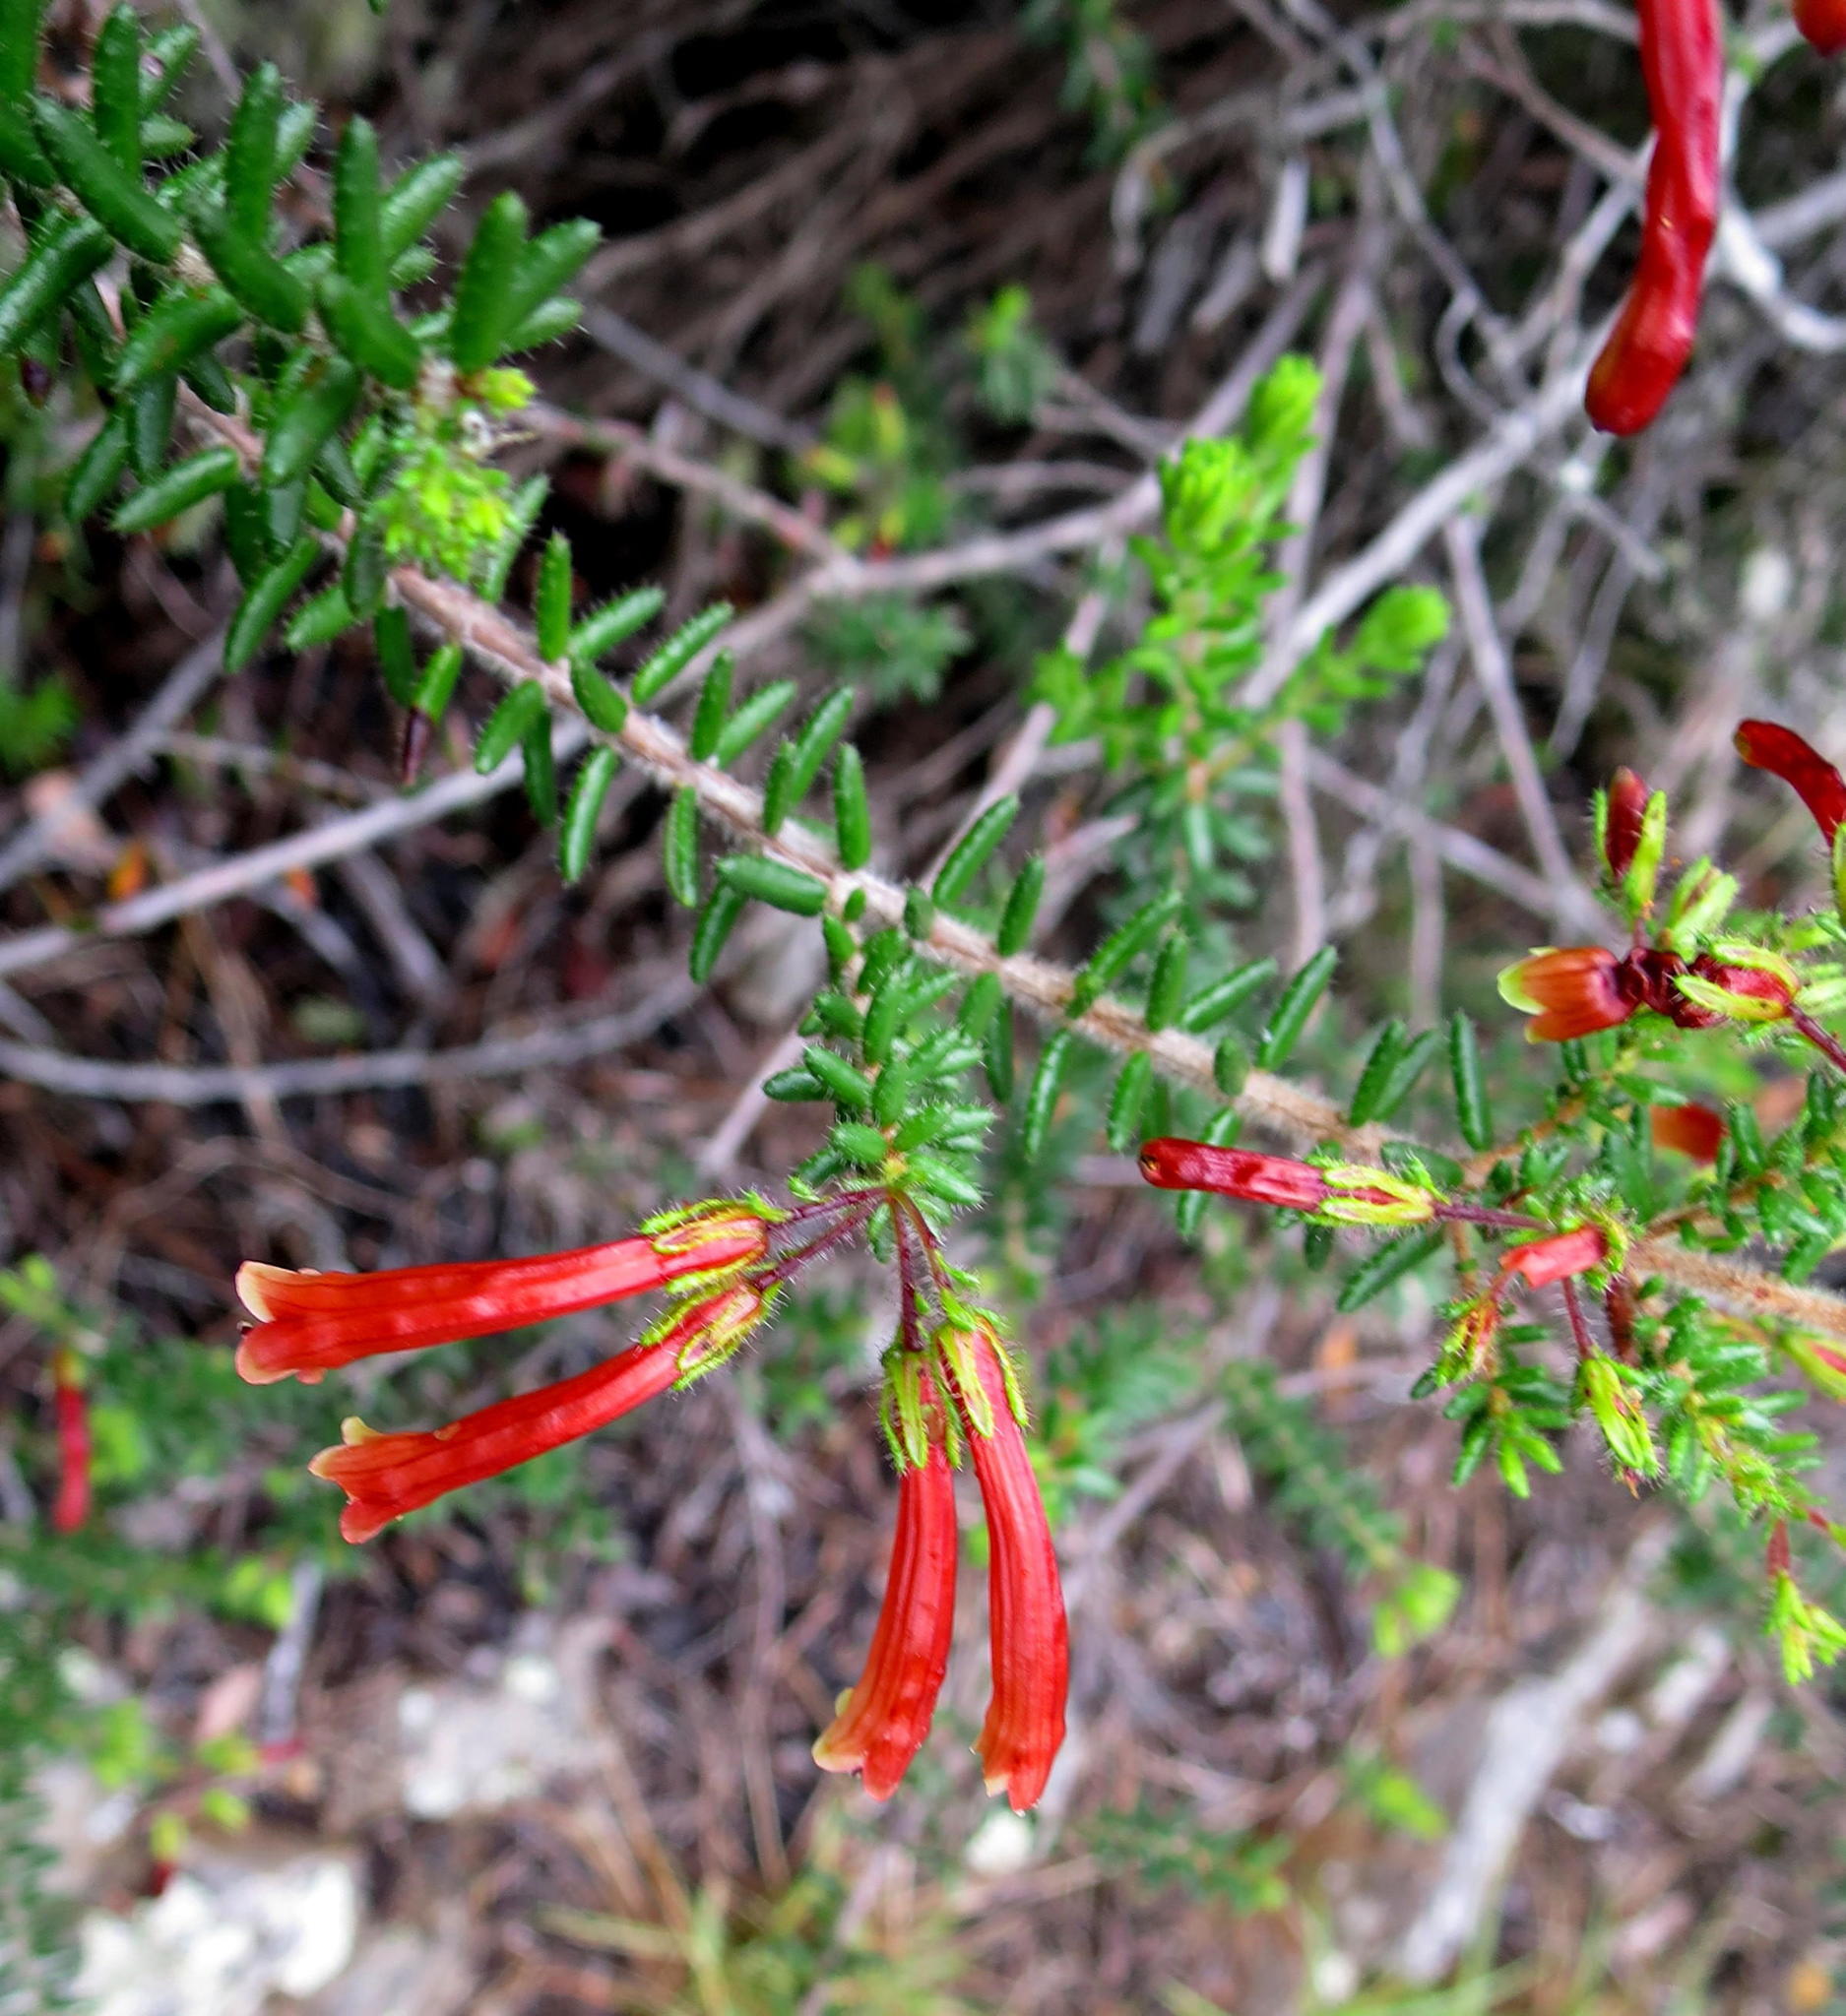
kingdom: Plantae
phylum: Tracheophyta
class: Magnoliopsida
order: Ericales
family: Ericaceae
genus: Erica
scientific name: Erica glandulosa
